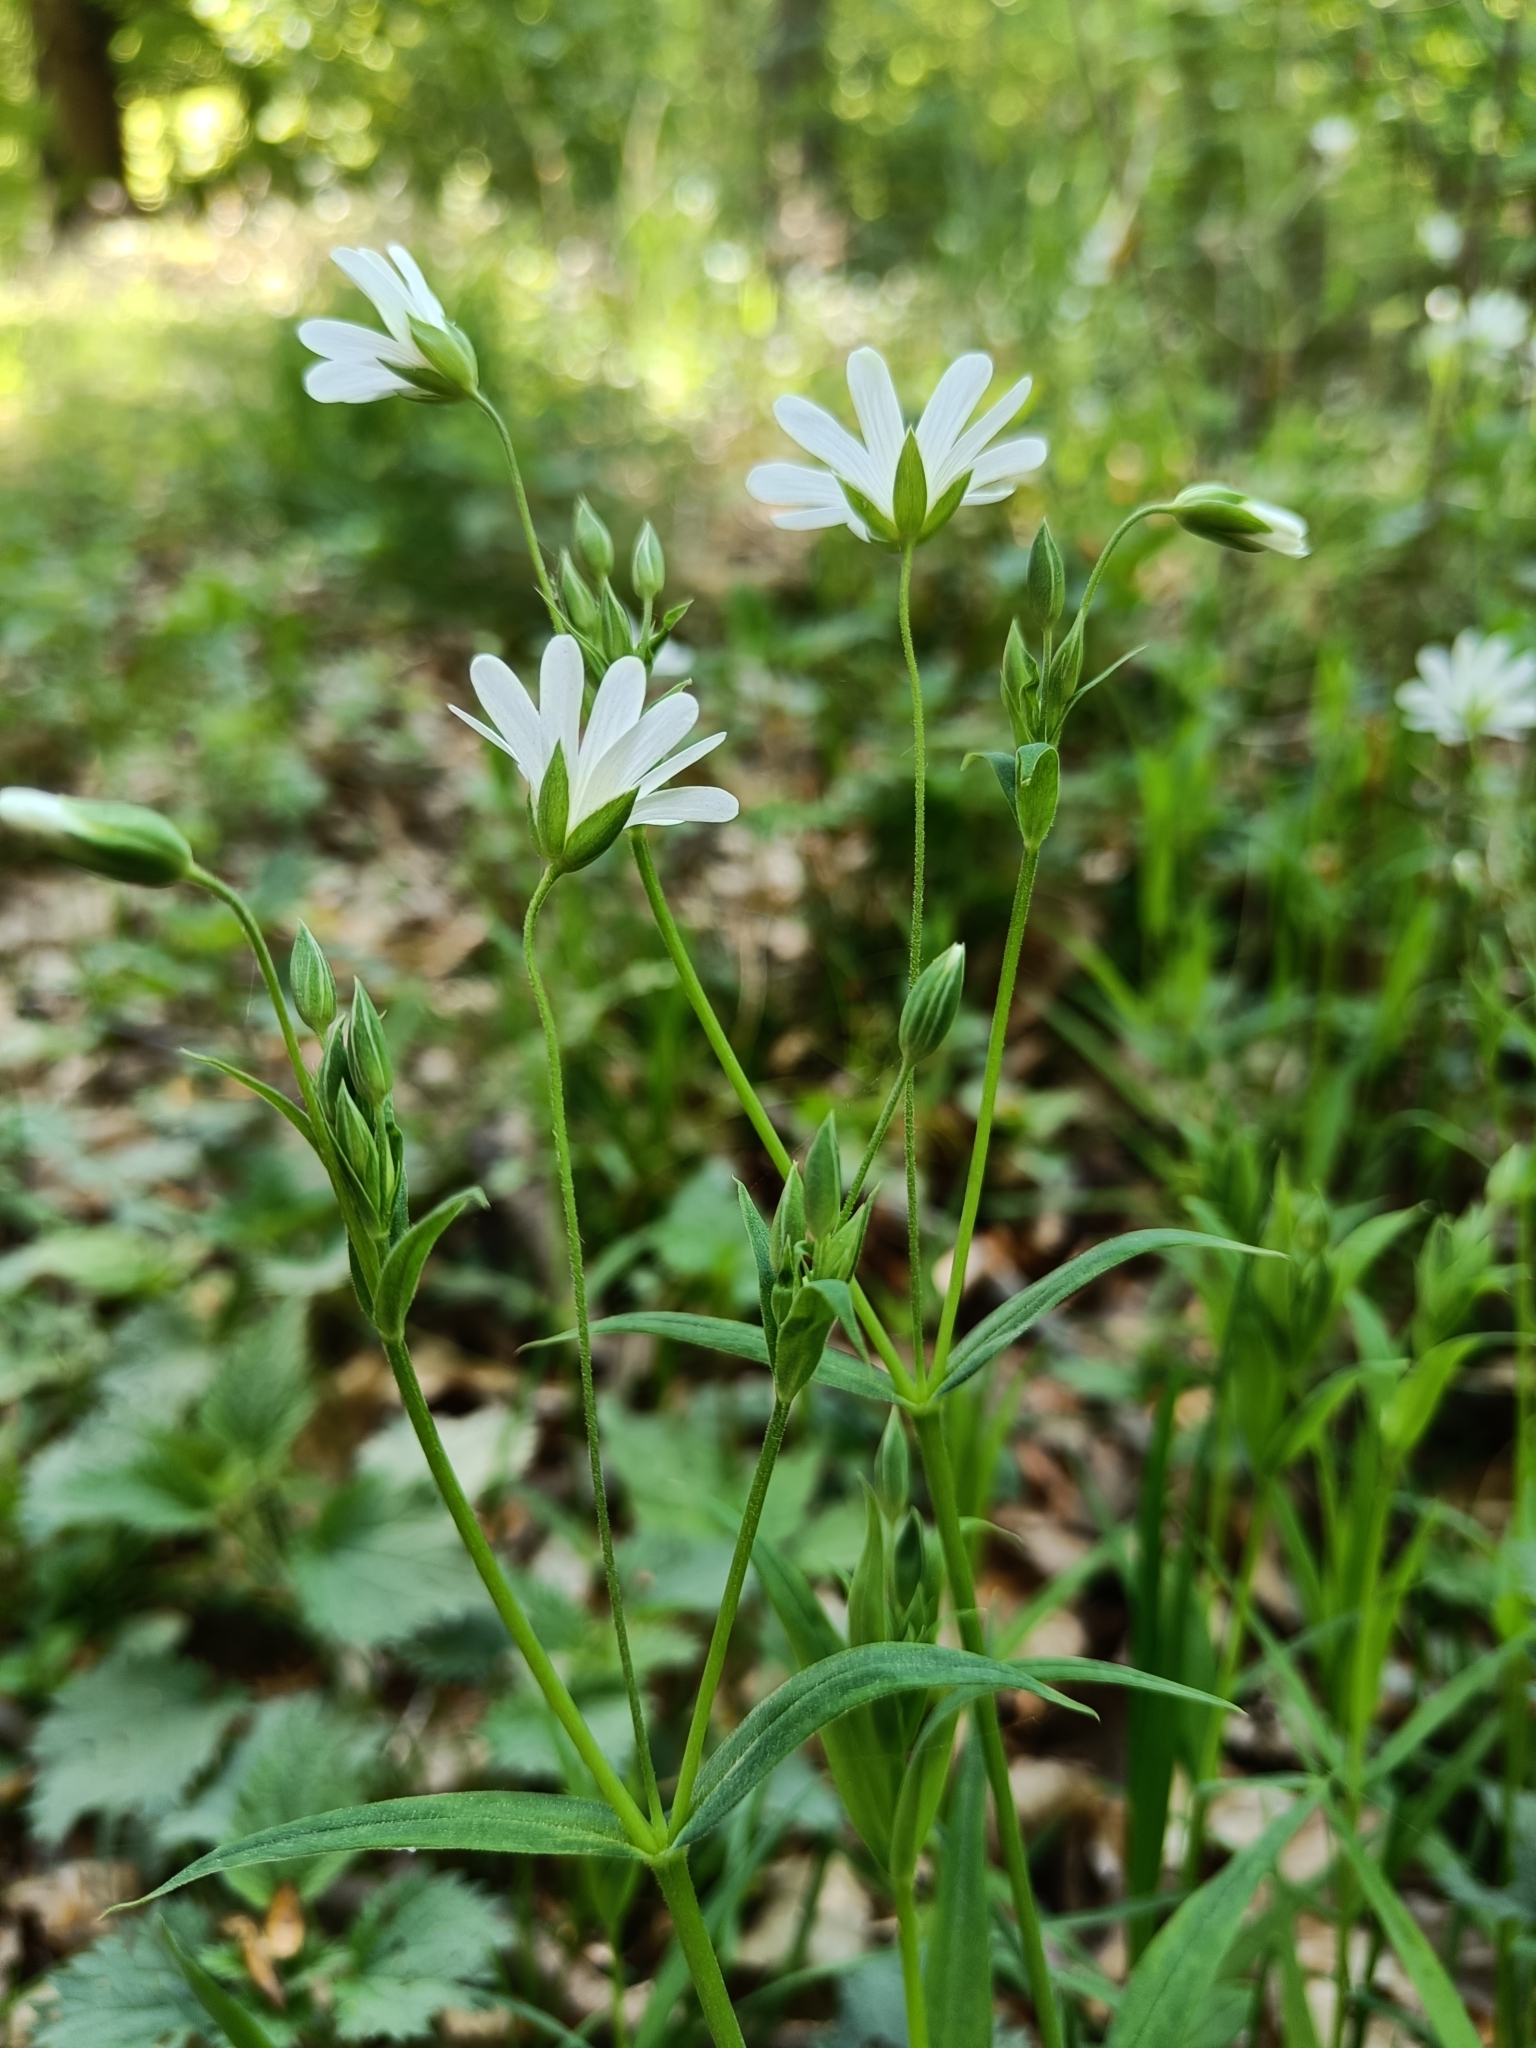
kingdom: Plantae
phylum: Tracheophyta
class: Magnoliopsida
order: Caryophyllales
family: Caryophyllaceae
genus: Rabelera
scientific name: Rabelera holostea
